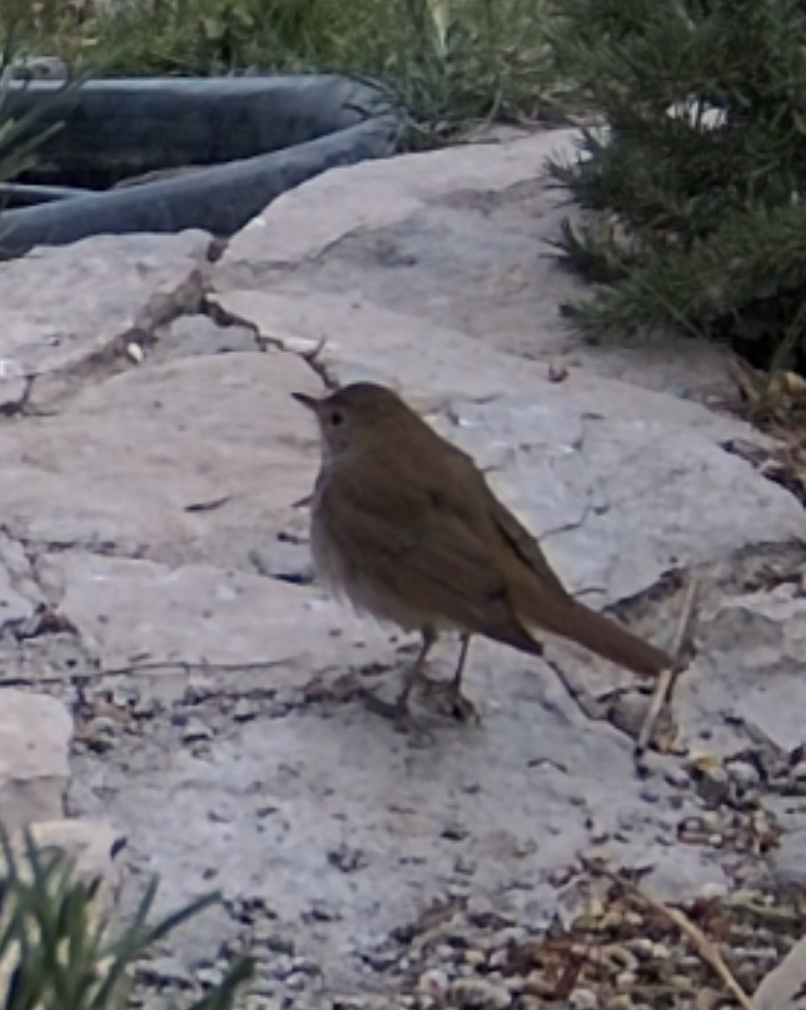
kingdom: Animalia
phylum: Chordata
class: Aves
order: Passeriformes
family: Muscicapidae
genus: Luscinia
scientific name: Luscinia megarhynchos
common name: Common nightingale
